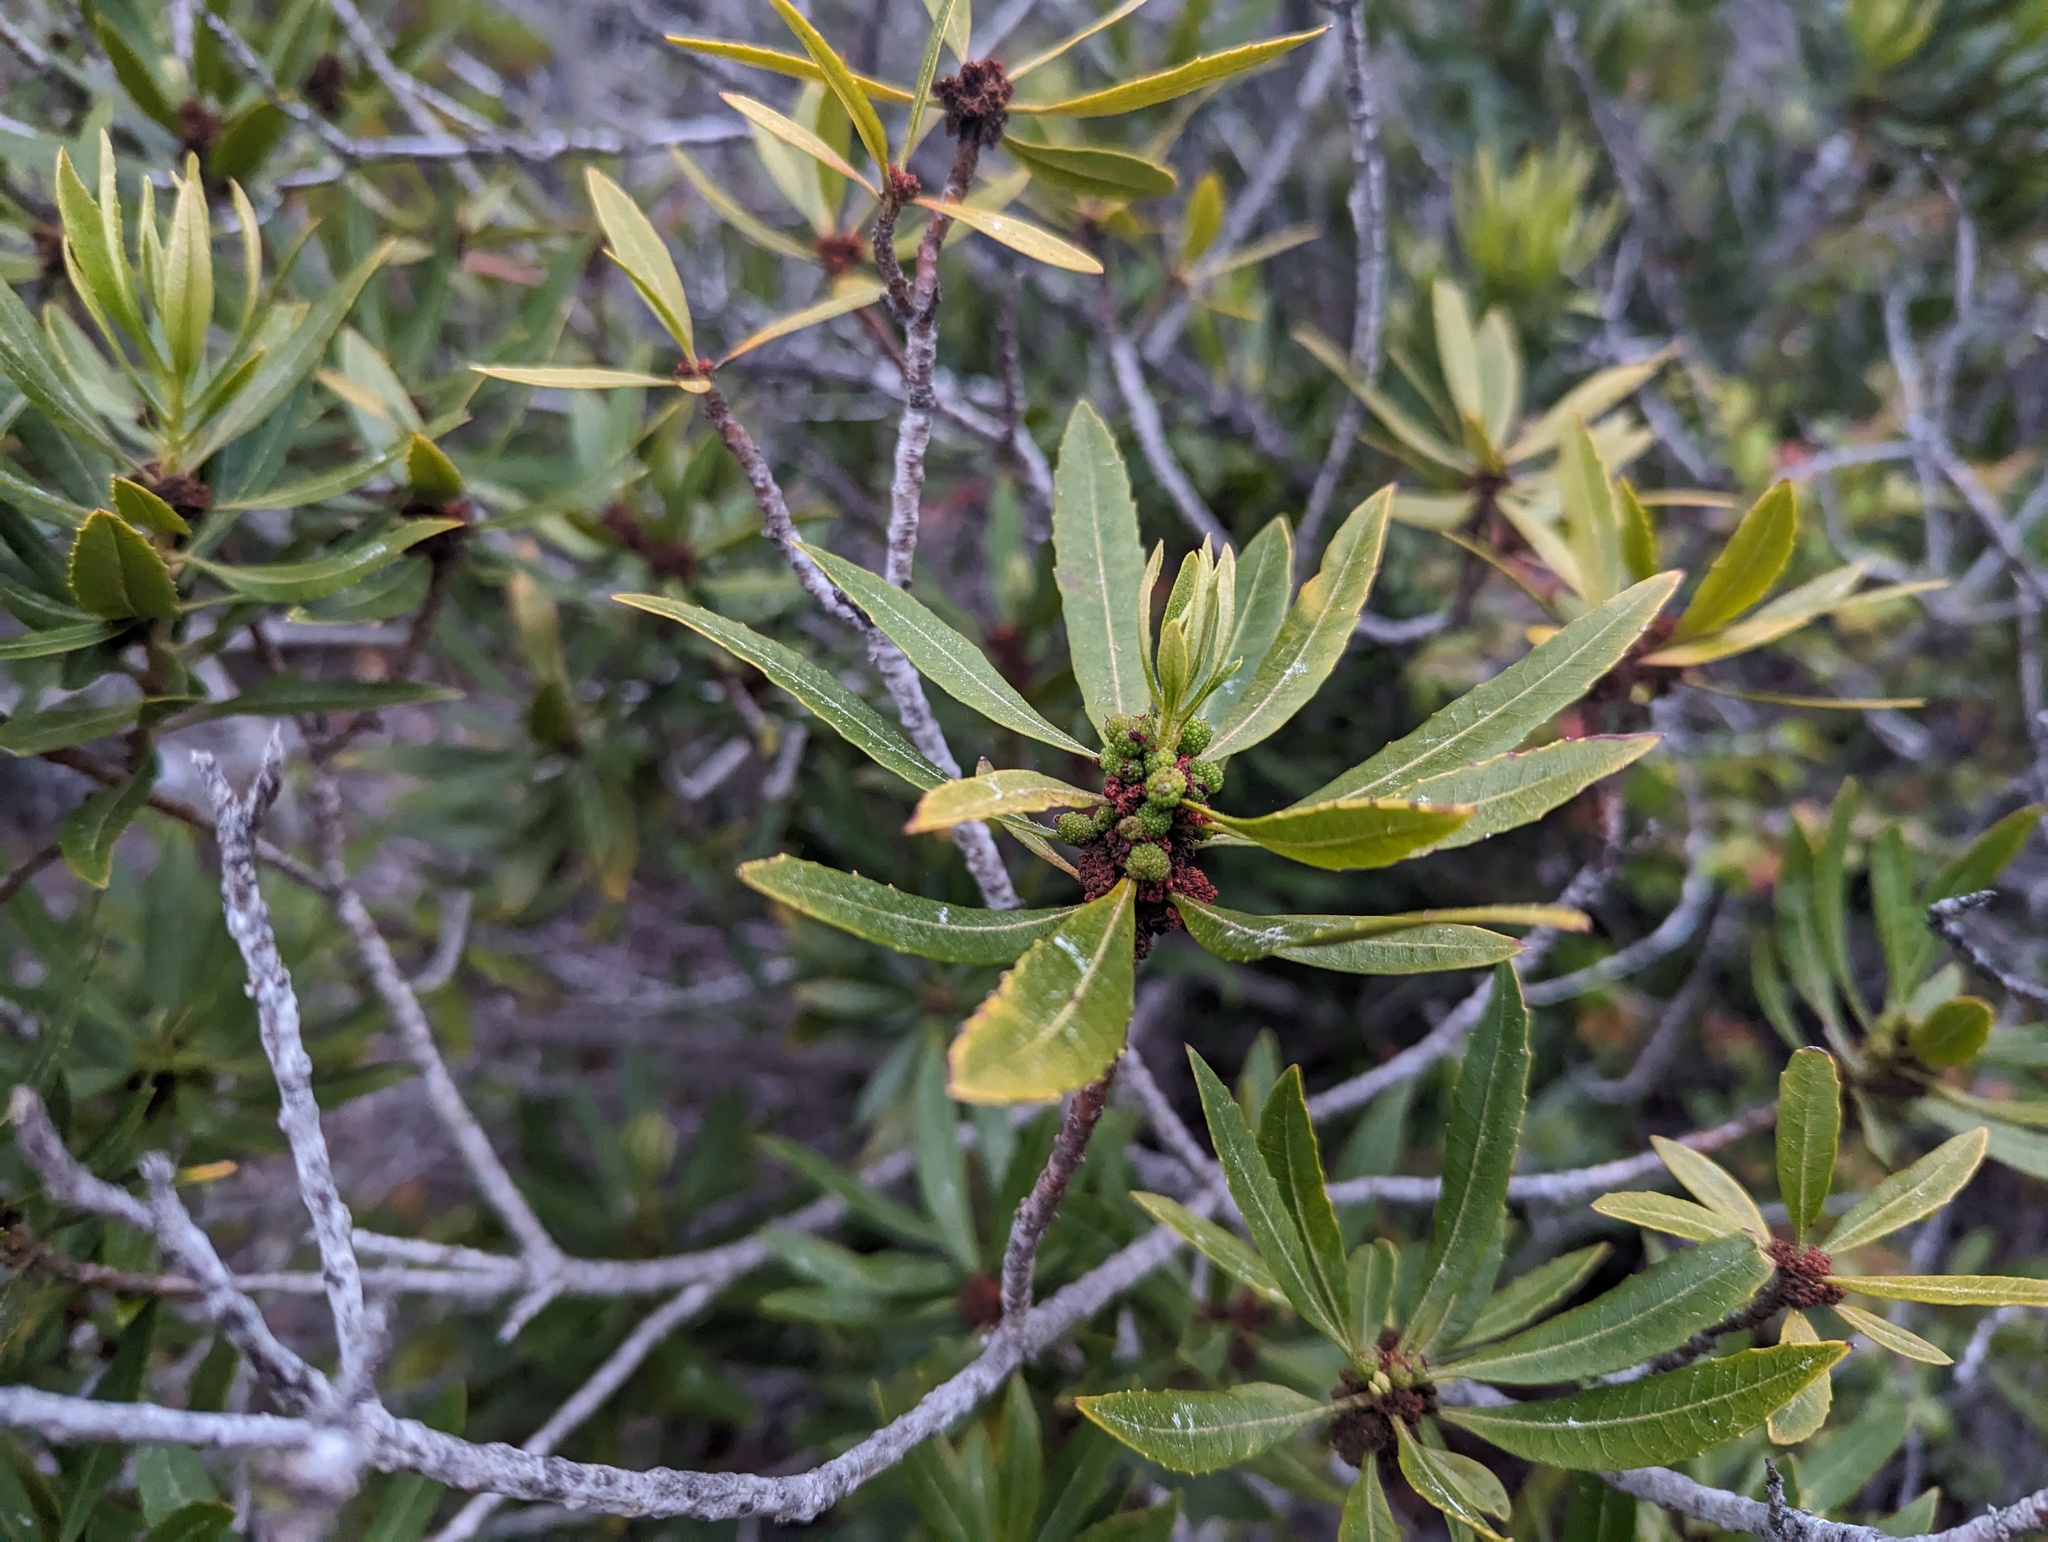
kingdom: Plantae
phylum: Tracheophyta
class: Magnoliopsida
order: Fagales
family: Myricaceae
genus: Morella
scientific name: Morella californica
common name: California wax-myrtle
